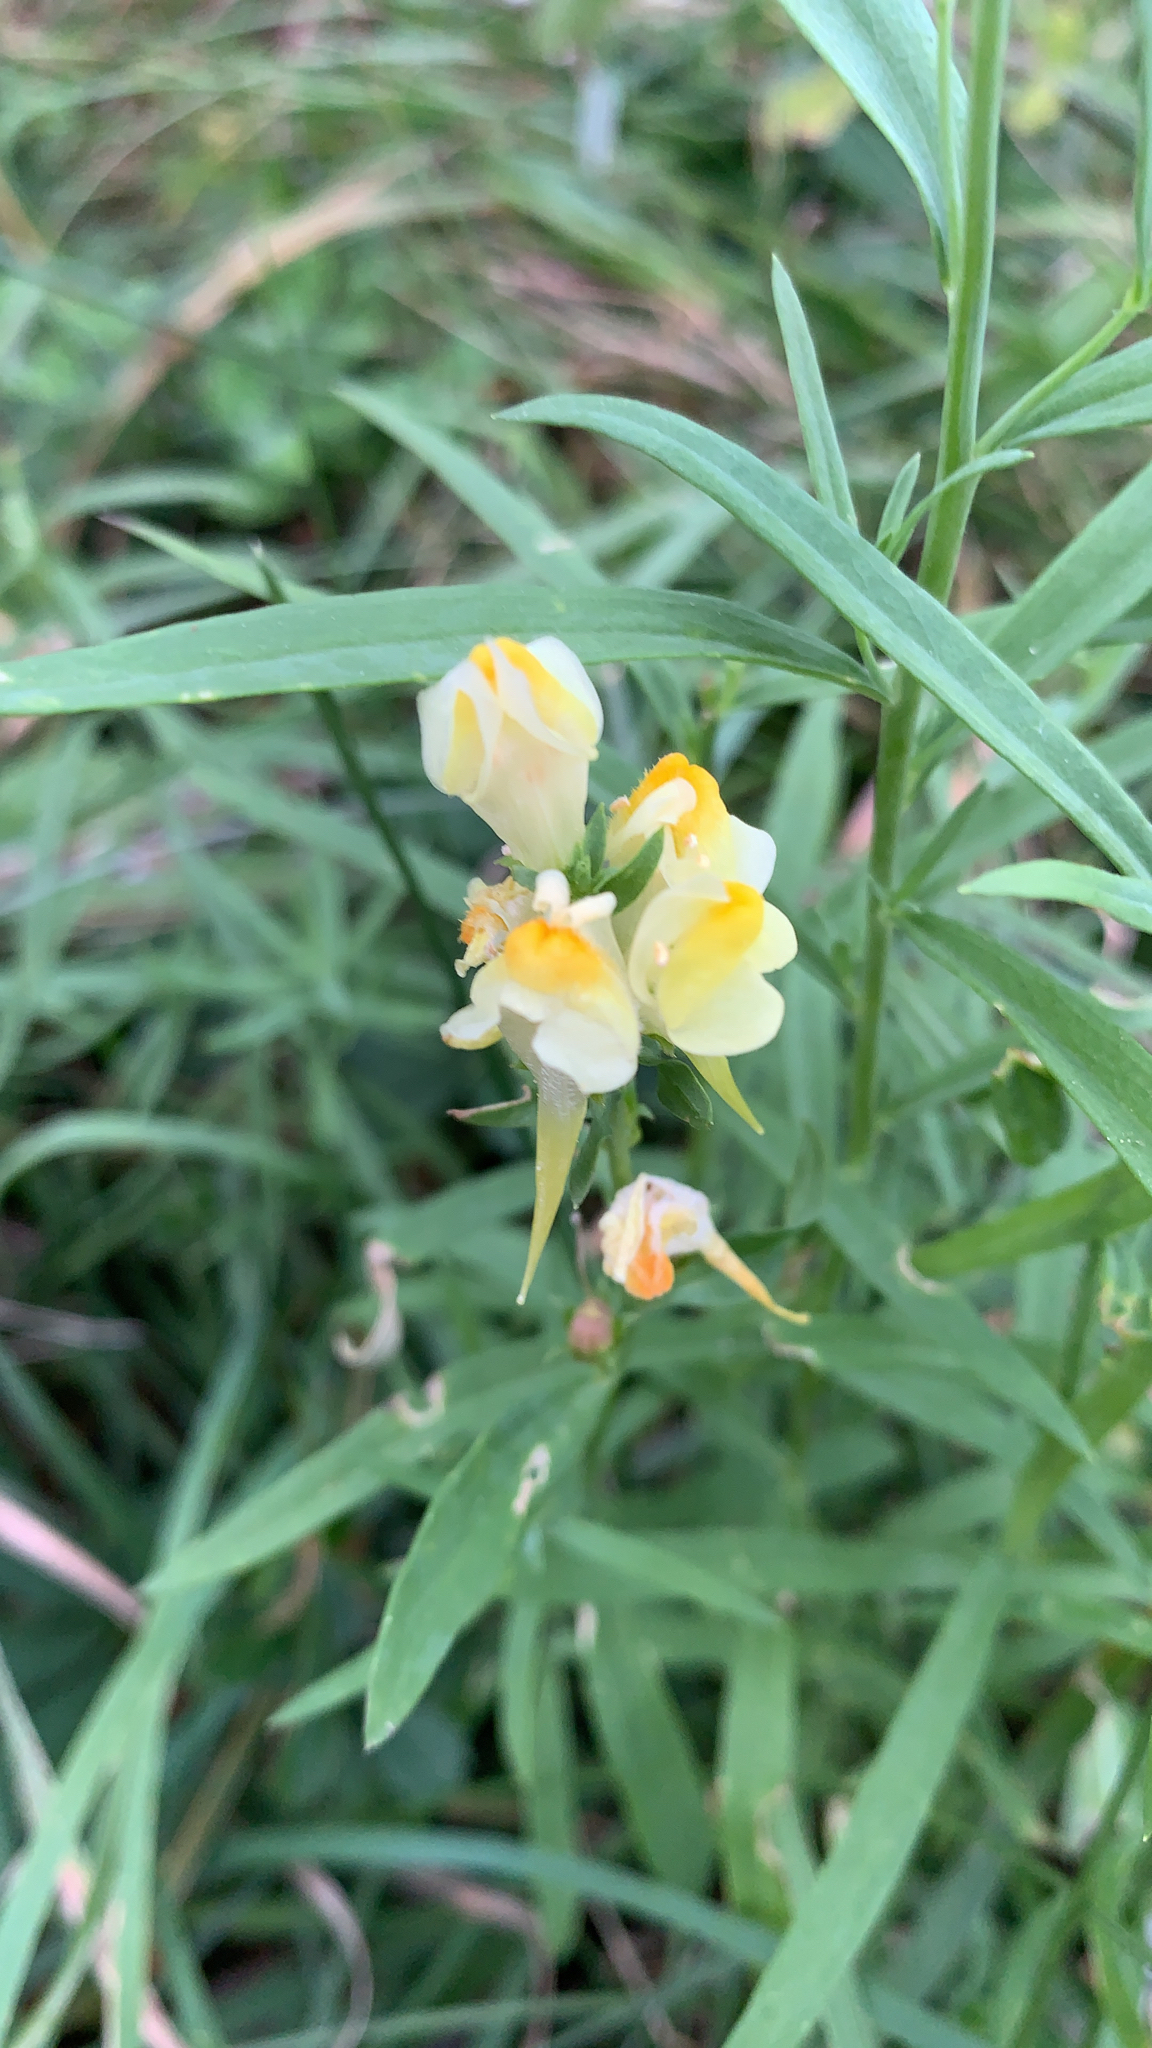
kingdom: Plantae
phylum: Tracheophyta
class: Magnoliopsida
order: Lamiales
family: Plantaginaceae
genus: Linaria
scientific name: Linaria vulgaris
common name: Butter and eggs
